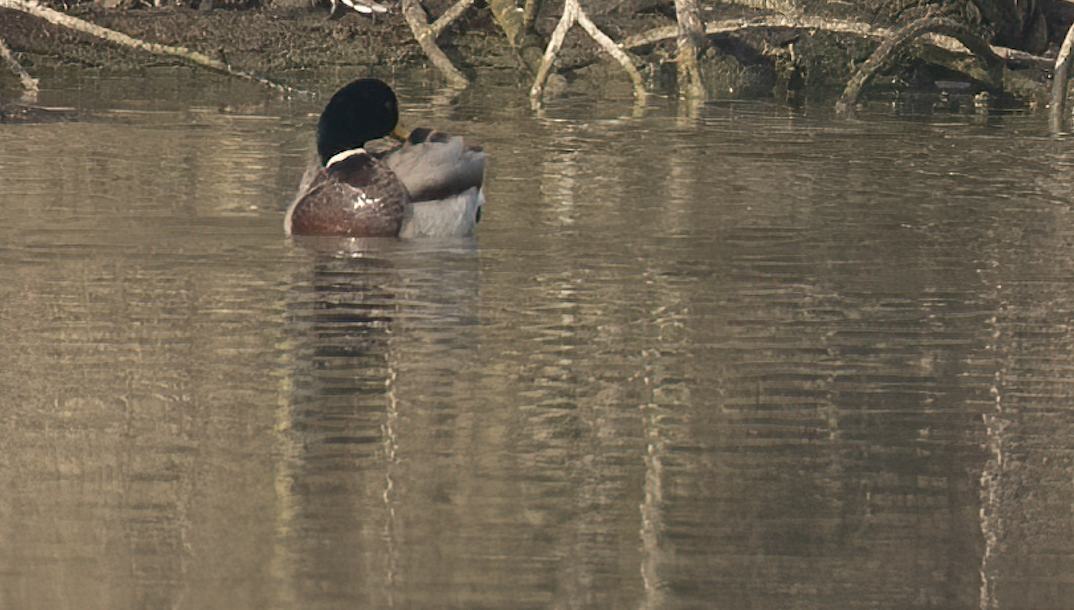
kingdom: Animalia
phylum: Chordata
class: Aves
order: Anseriformes
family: Anatidae
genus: Anas
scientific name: Anas platyrhynchos
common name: Mallard
